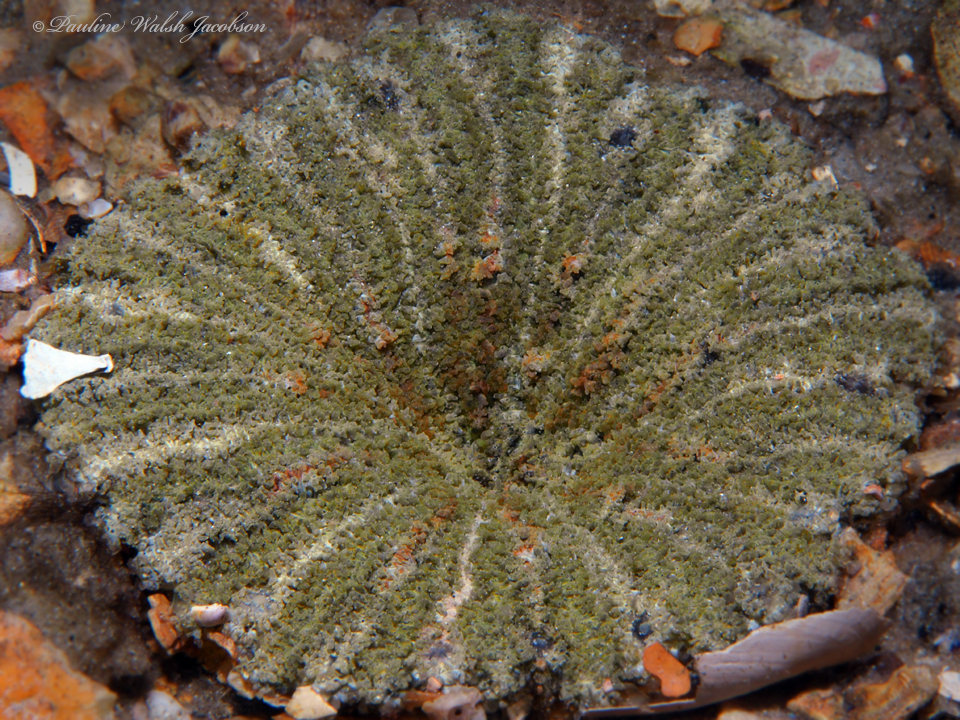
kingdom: Animalia
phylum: Cnidaria
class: Anthozoa
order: Actiniaria
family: Actiniidae
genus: Actinostella
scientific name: Actinostella flosculifera
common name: Collared sand anemone
